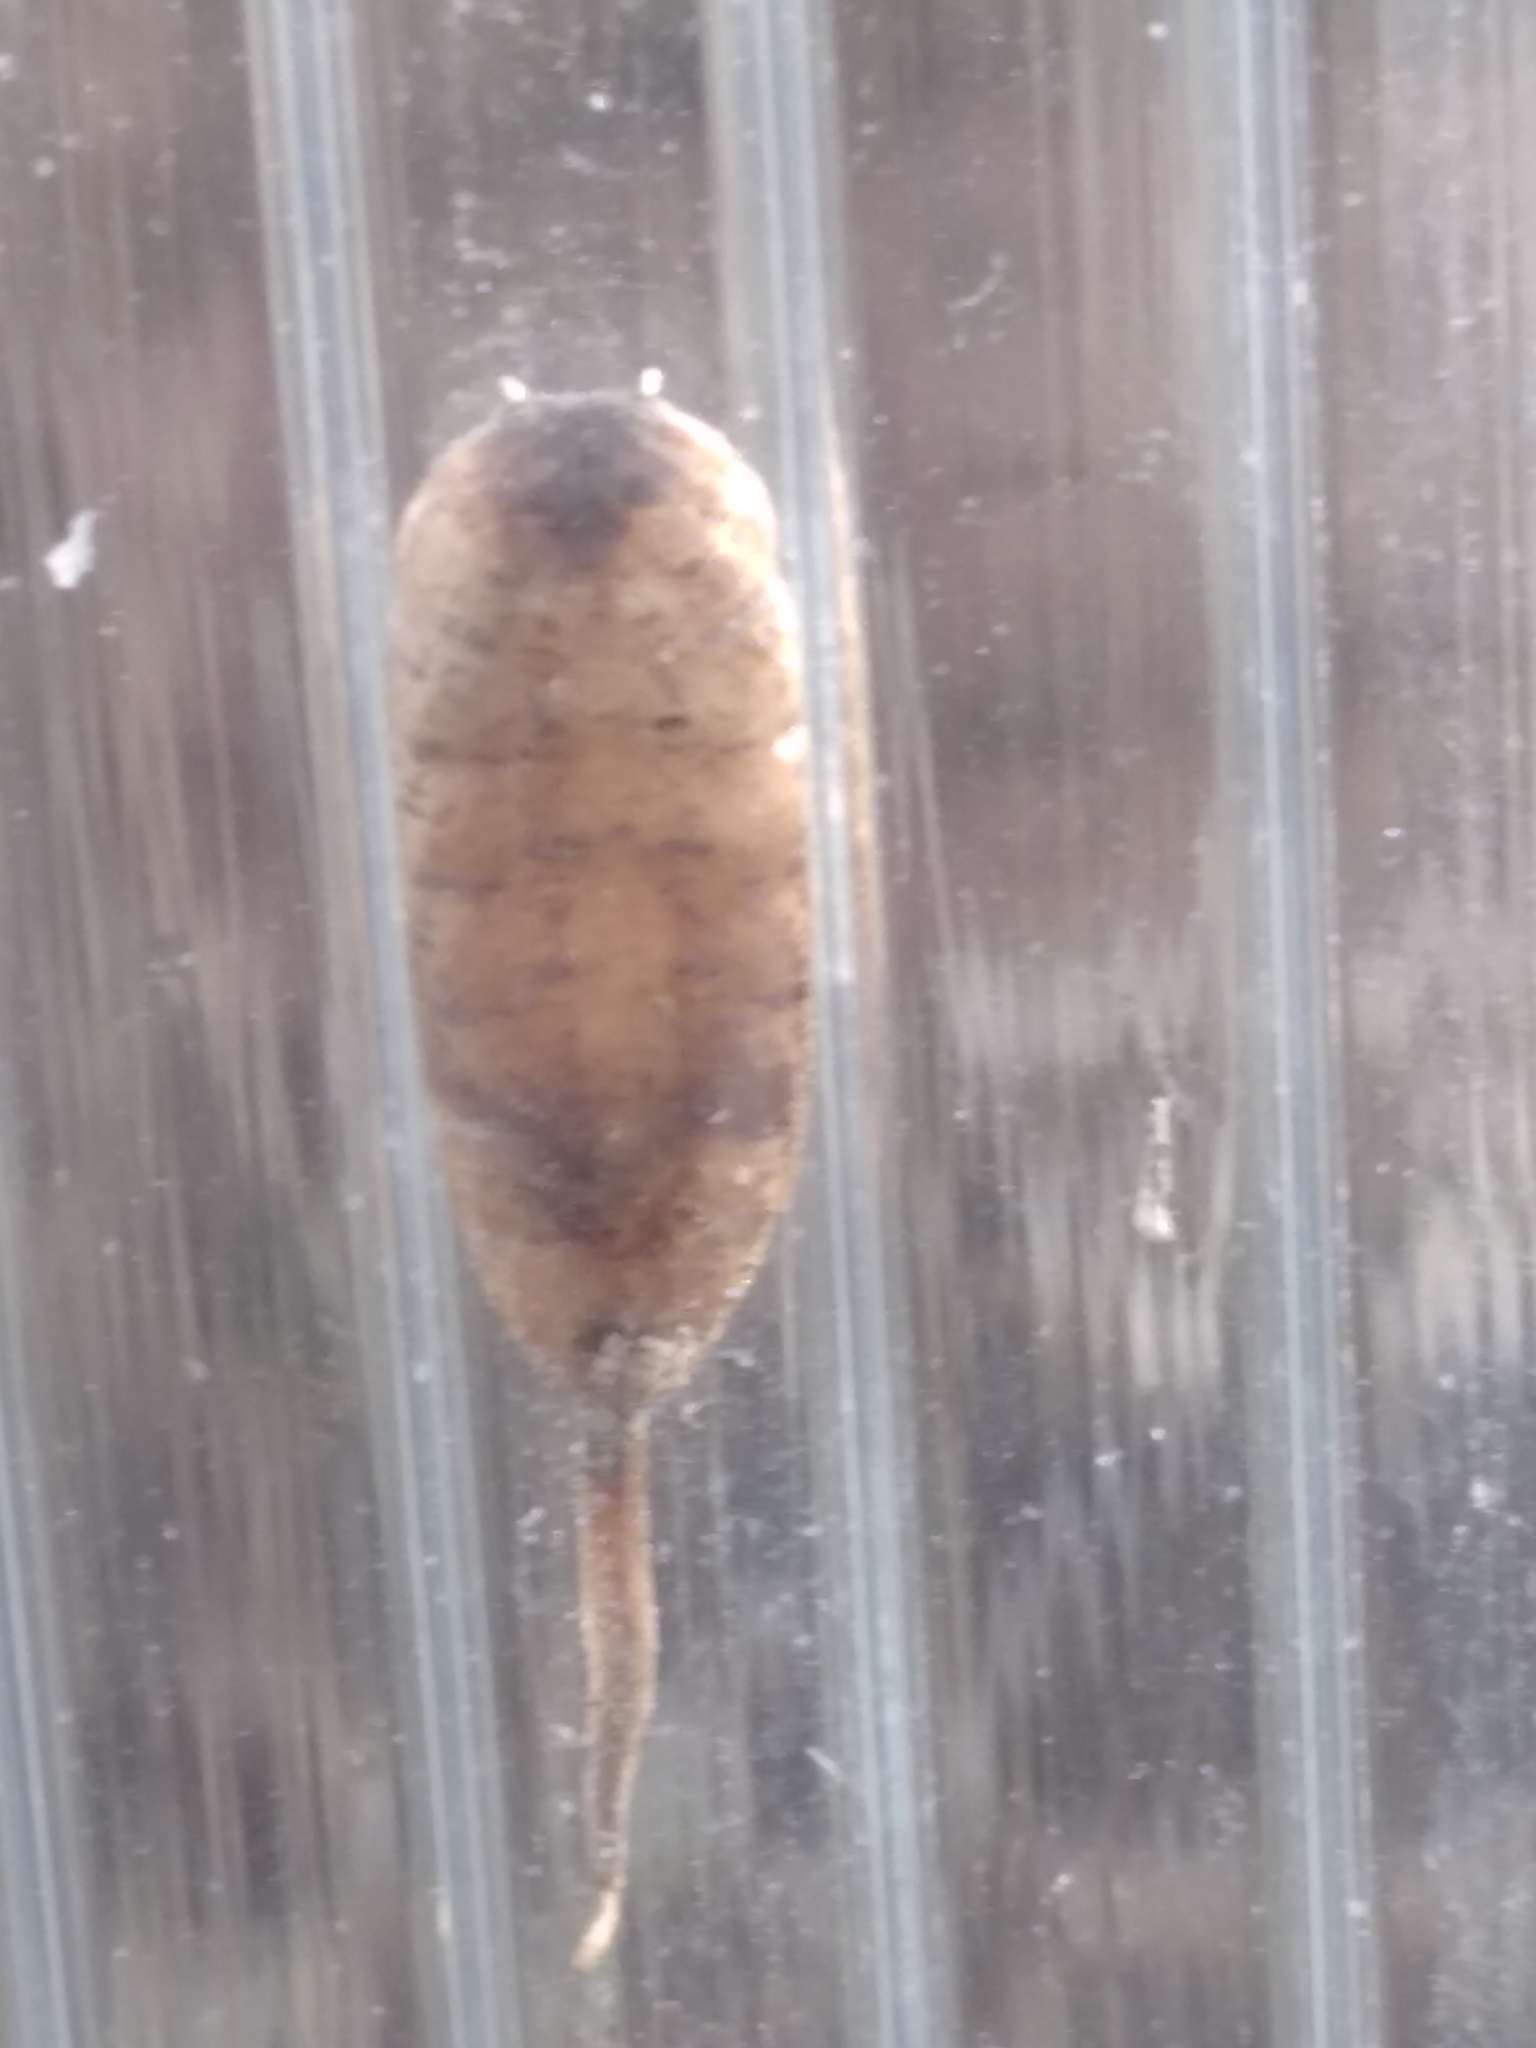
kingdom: Animalia
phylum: Arthropoda
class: Insecta
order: Diptera
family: Syrphidae
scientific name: Syrphidae
